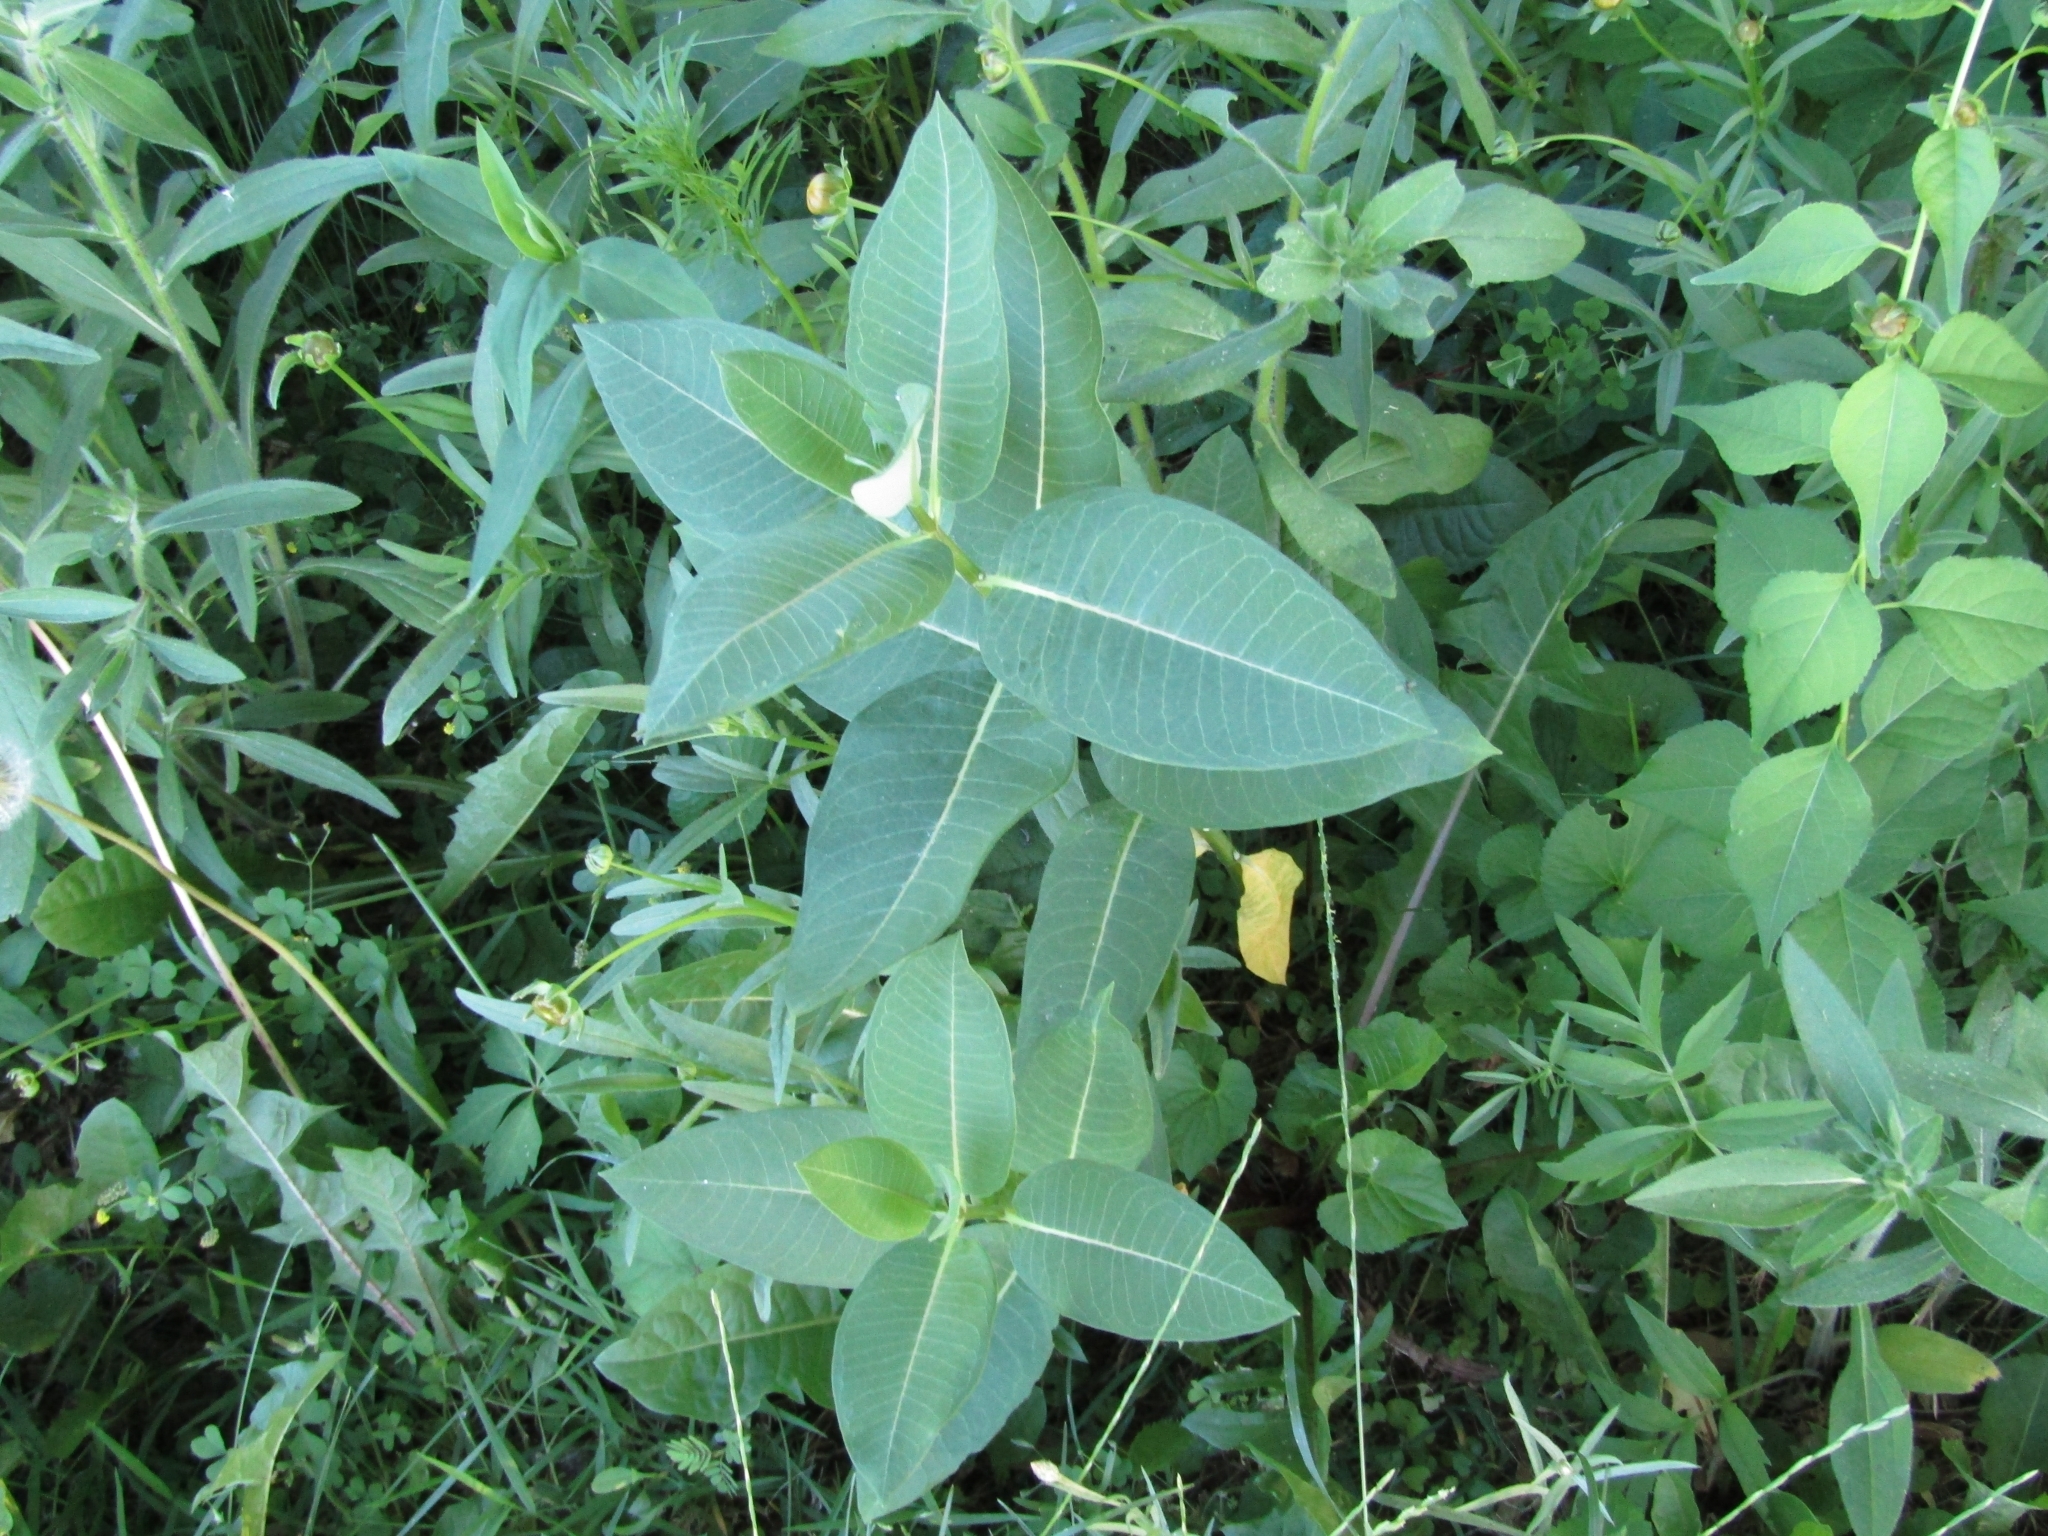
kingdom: Plantae
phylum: Tracheophyta
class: Magnoliopsida
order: Gentianales
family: Apocynaceae
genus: Asclepias
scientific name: Asclepias syriaca
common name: Common milkweed
